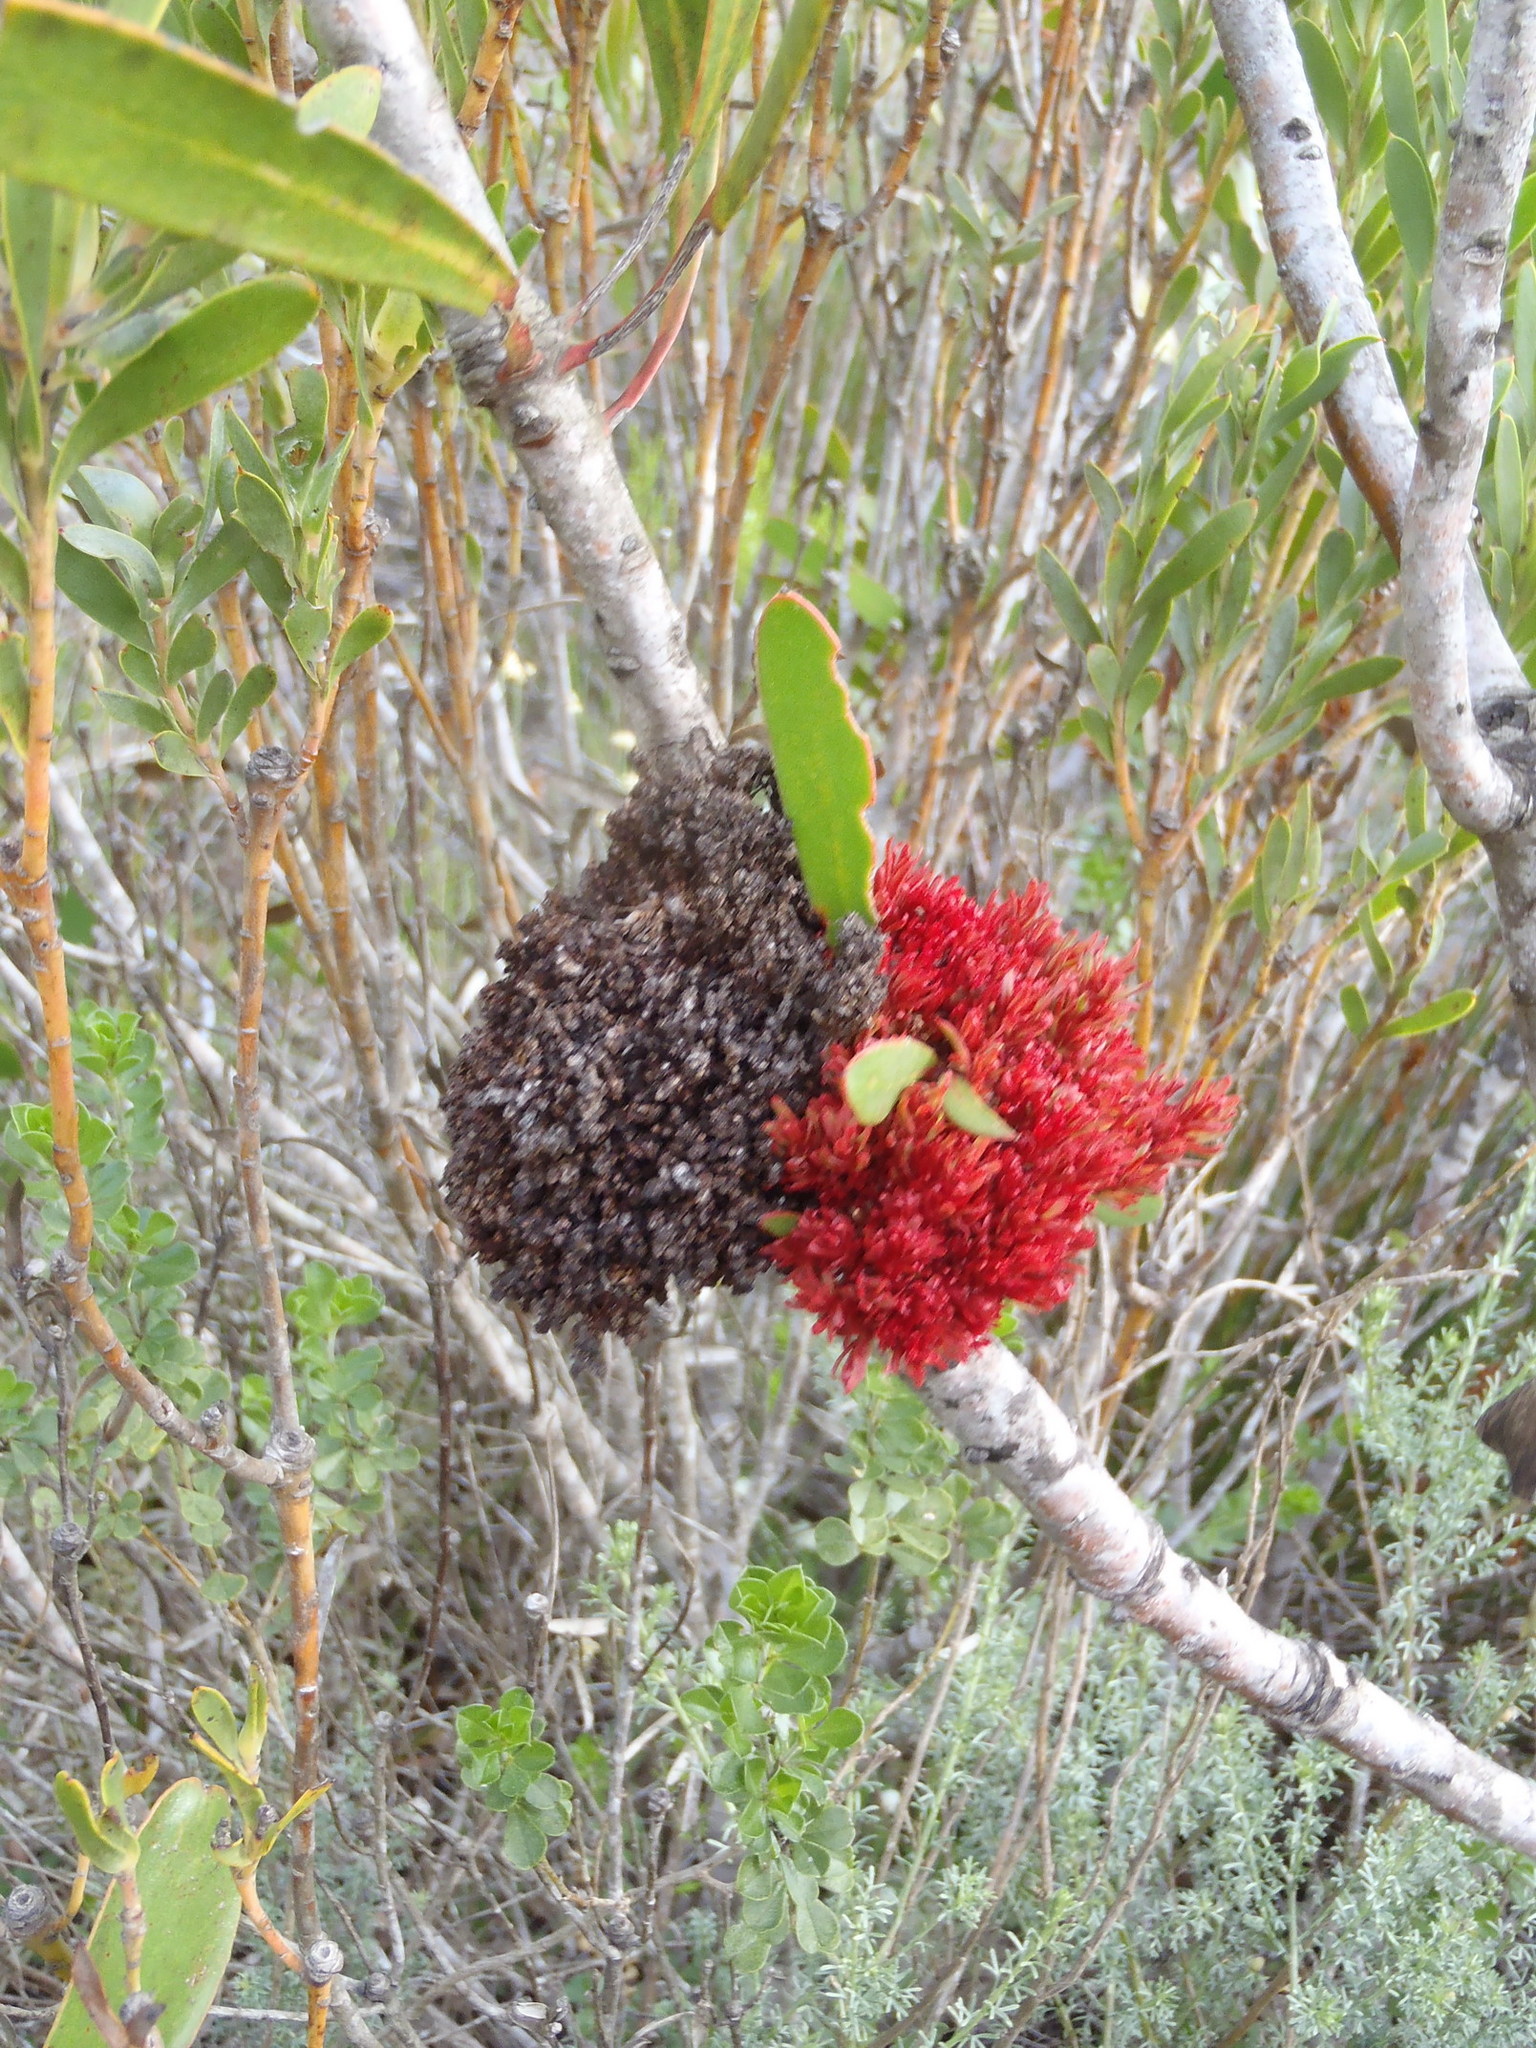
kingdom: Bacteria
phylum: Firmicutes
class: Bacilli
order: Acholeplasmatales
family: Acholeplasmataceae
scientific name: Acholeplasmataceae
